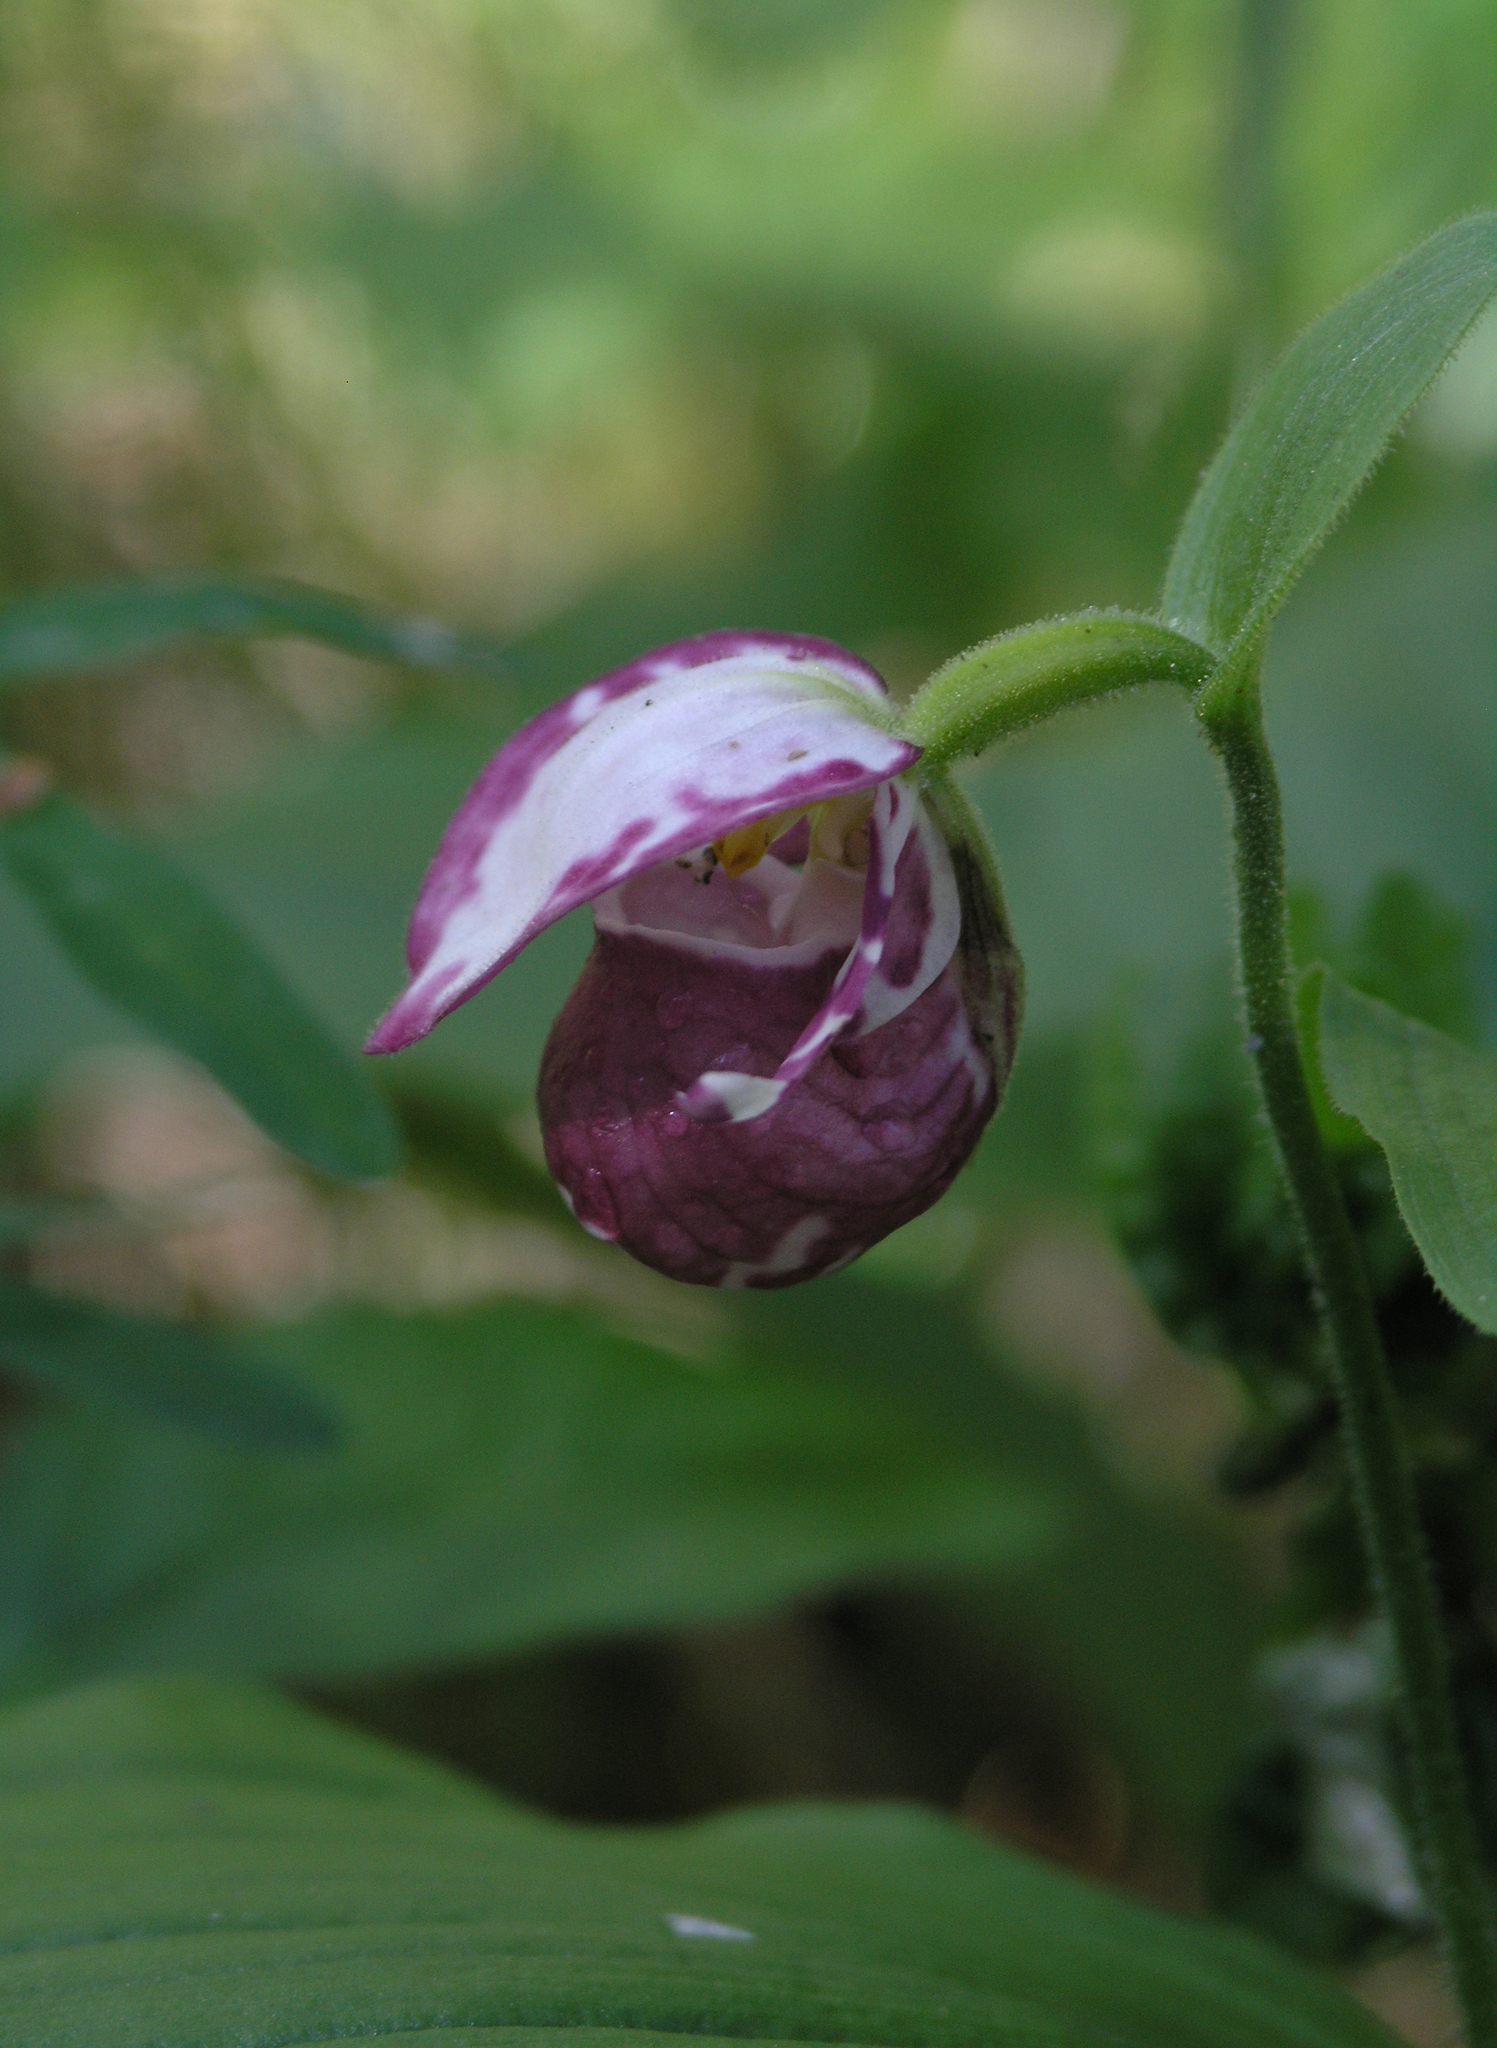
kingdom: Plantae
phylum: Tracheophyta
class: Liliopsida
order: Asparagales
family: Orchidaceae
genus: Cypripedium
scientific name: Cypripedium guttatum
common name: Pink lady slipper
